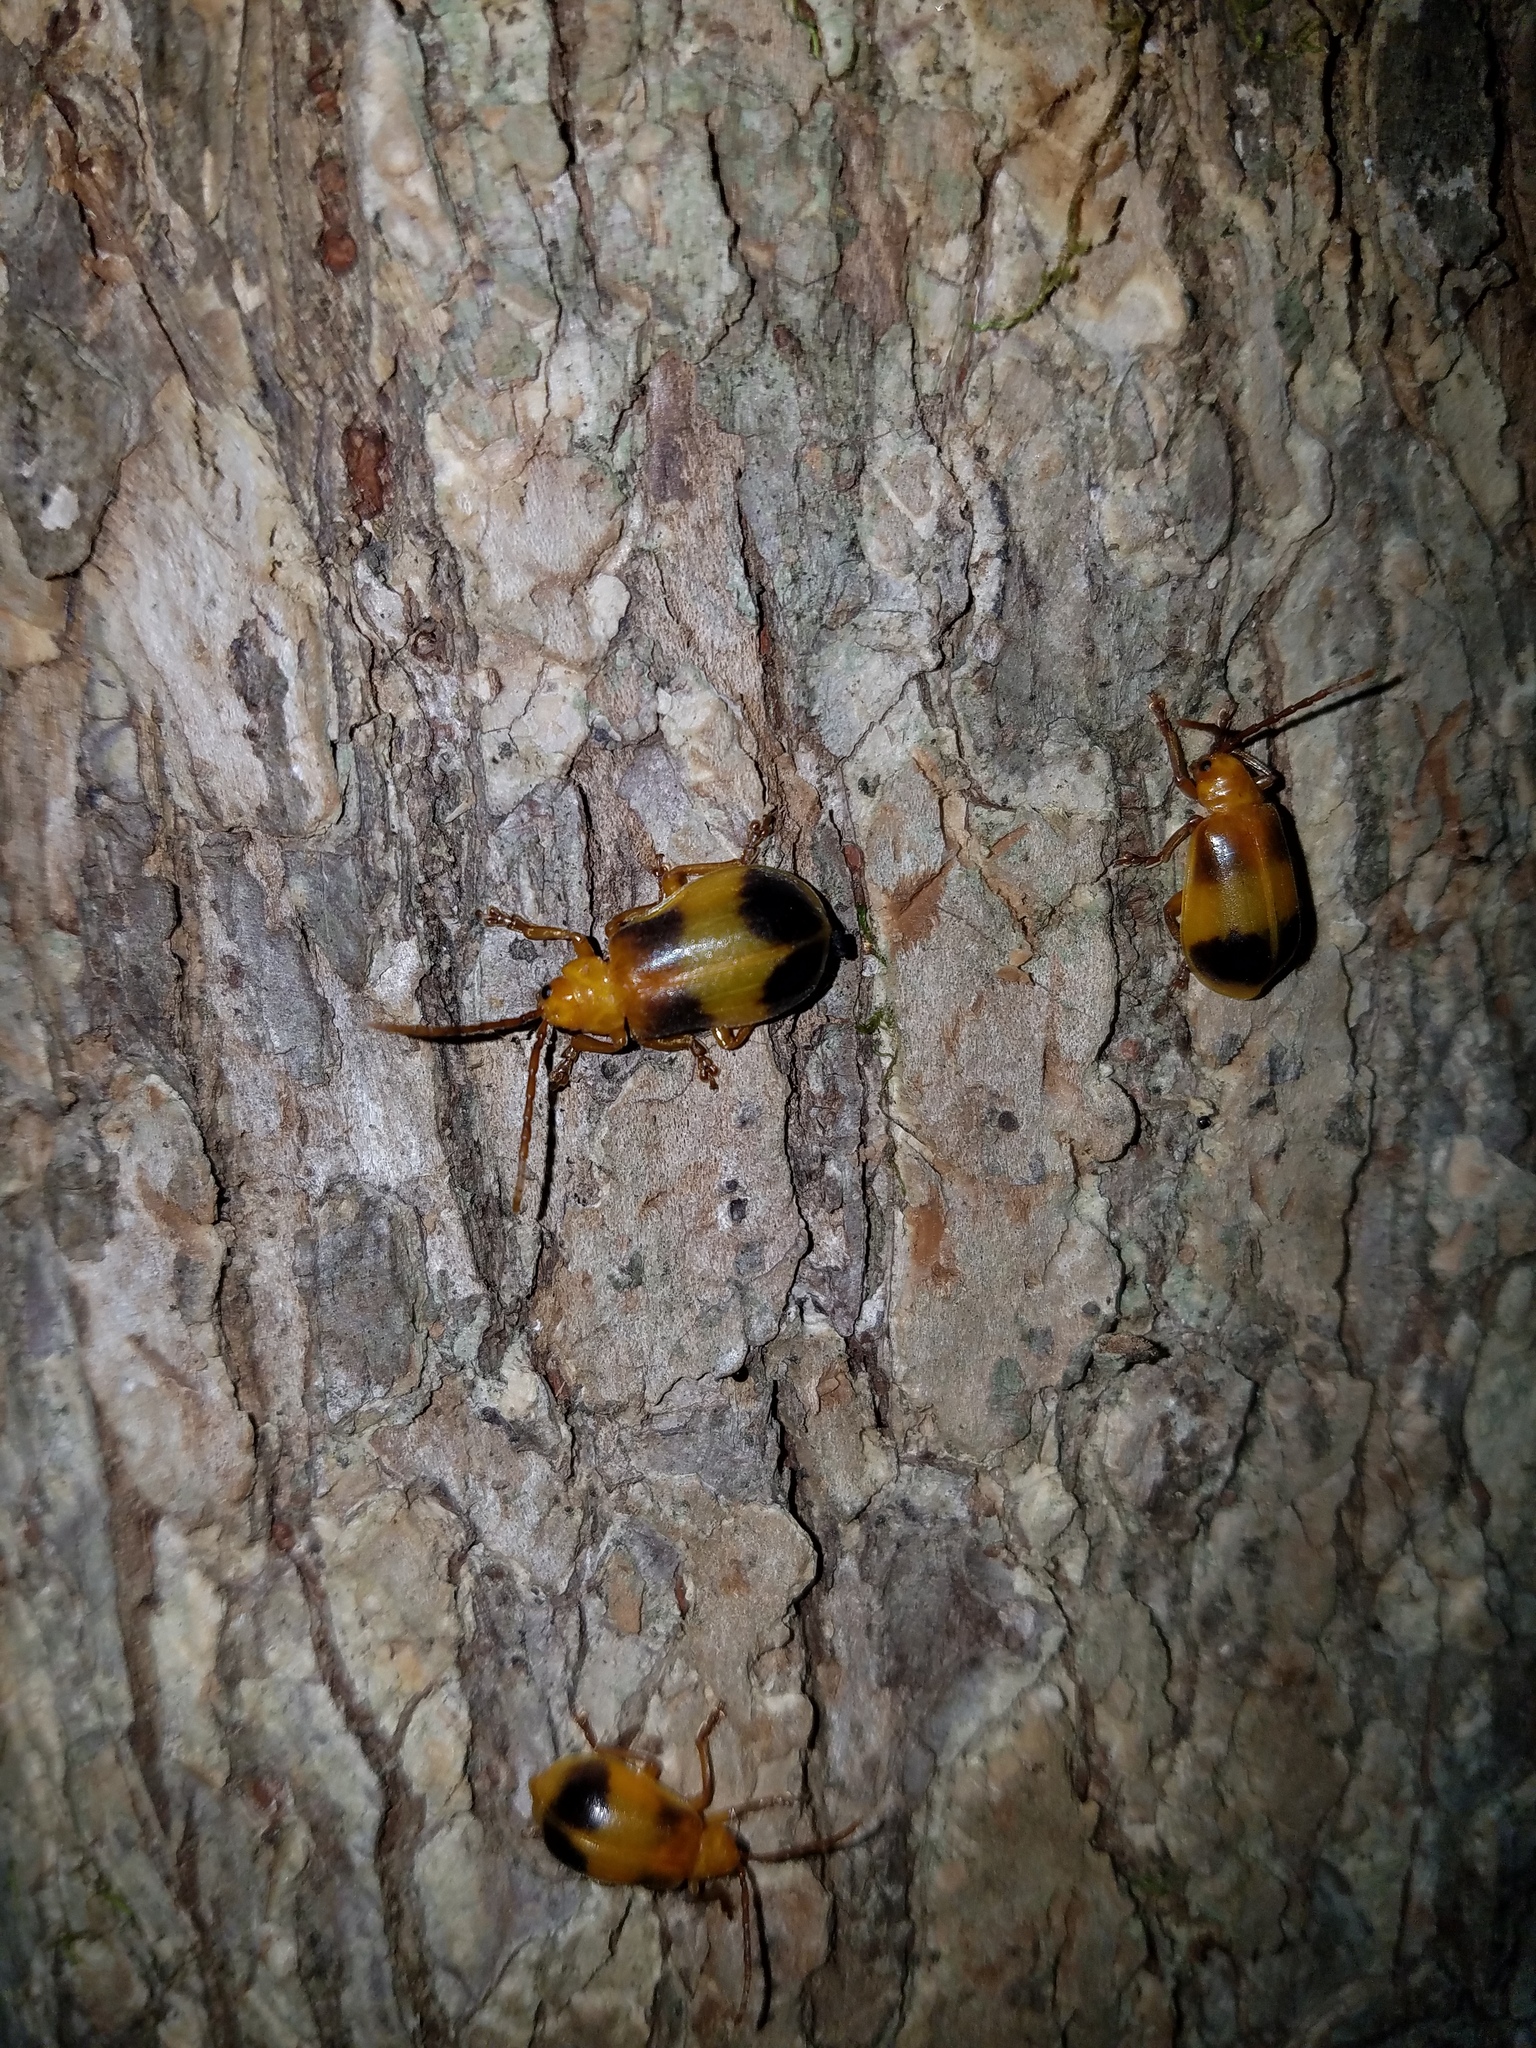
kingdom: Animalia
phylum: Arthropoda
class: Insecta
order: Coleoptera
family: Chrysomelidae
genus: Monocesta
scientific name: Monocesta coryli
